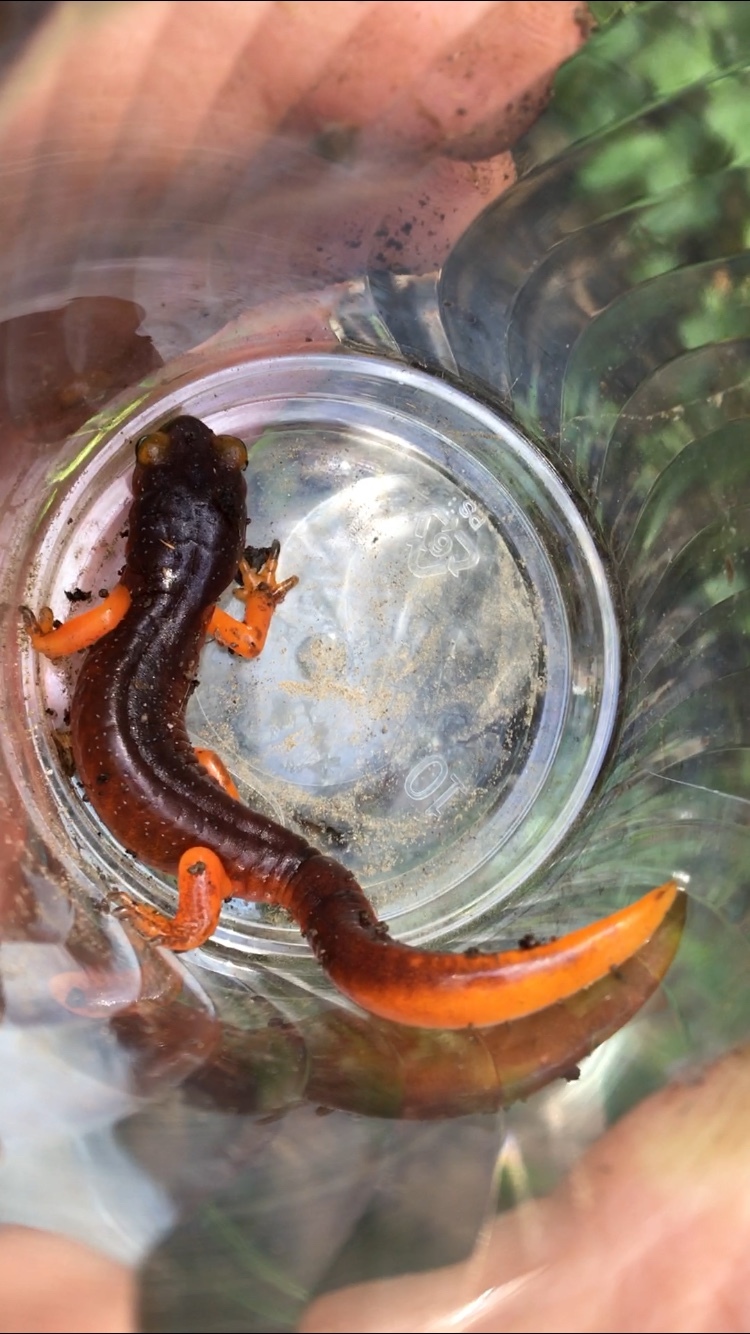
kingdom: Animalia
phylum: Chordata
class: Amphibia
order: Caudata
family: Plethodontidae
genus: Ensatina
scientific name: Ensatina eschscholtzii
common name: Ensatina
